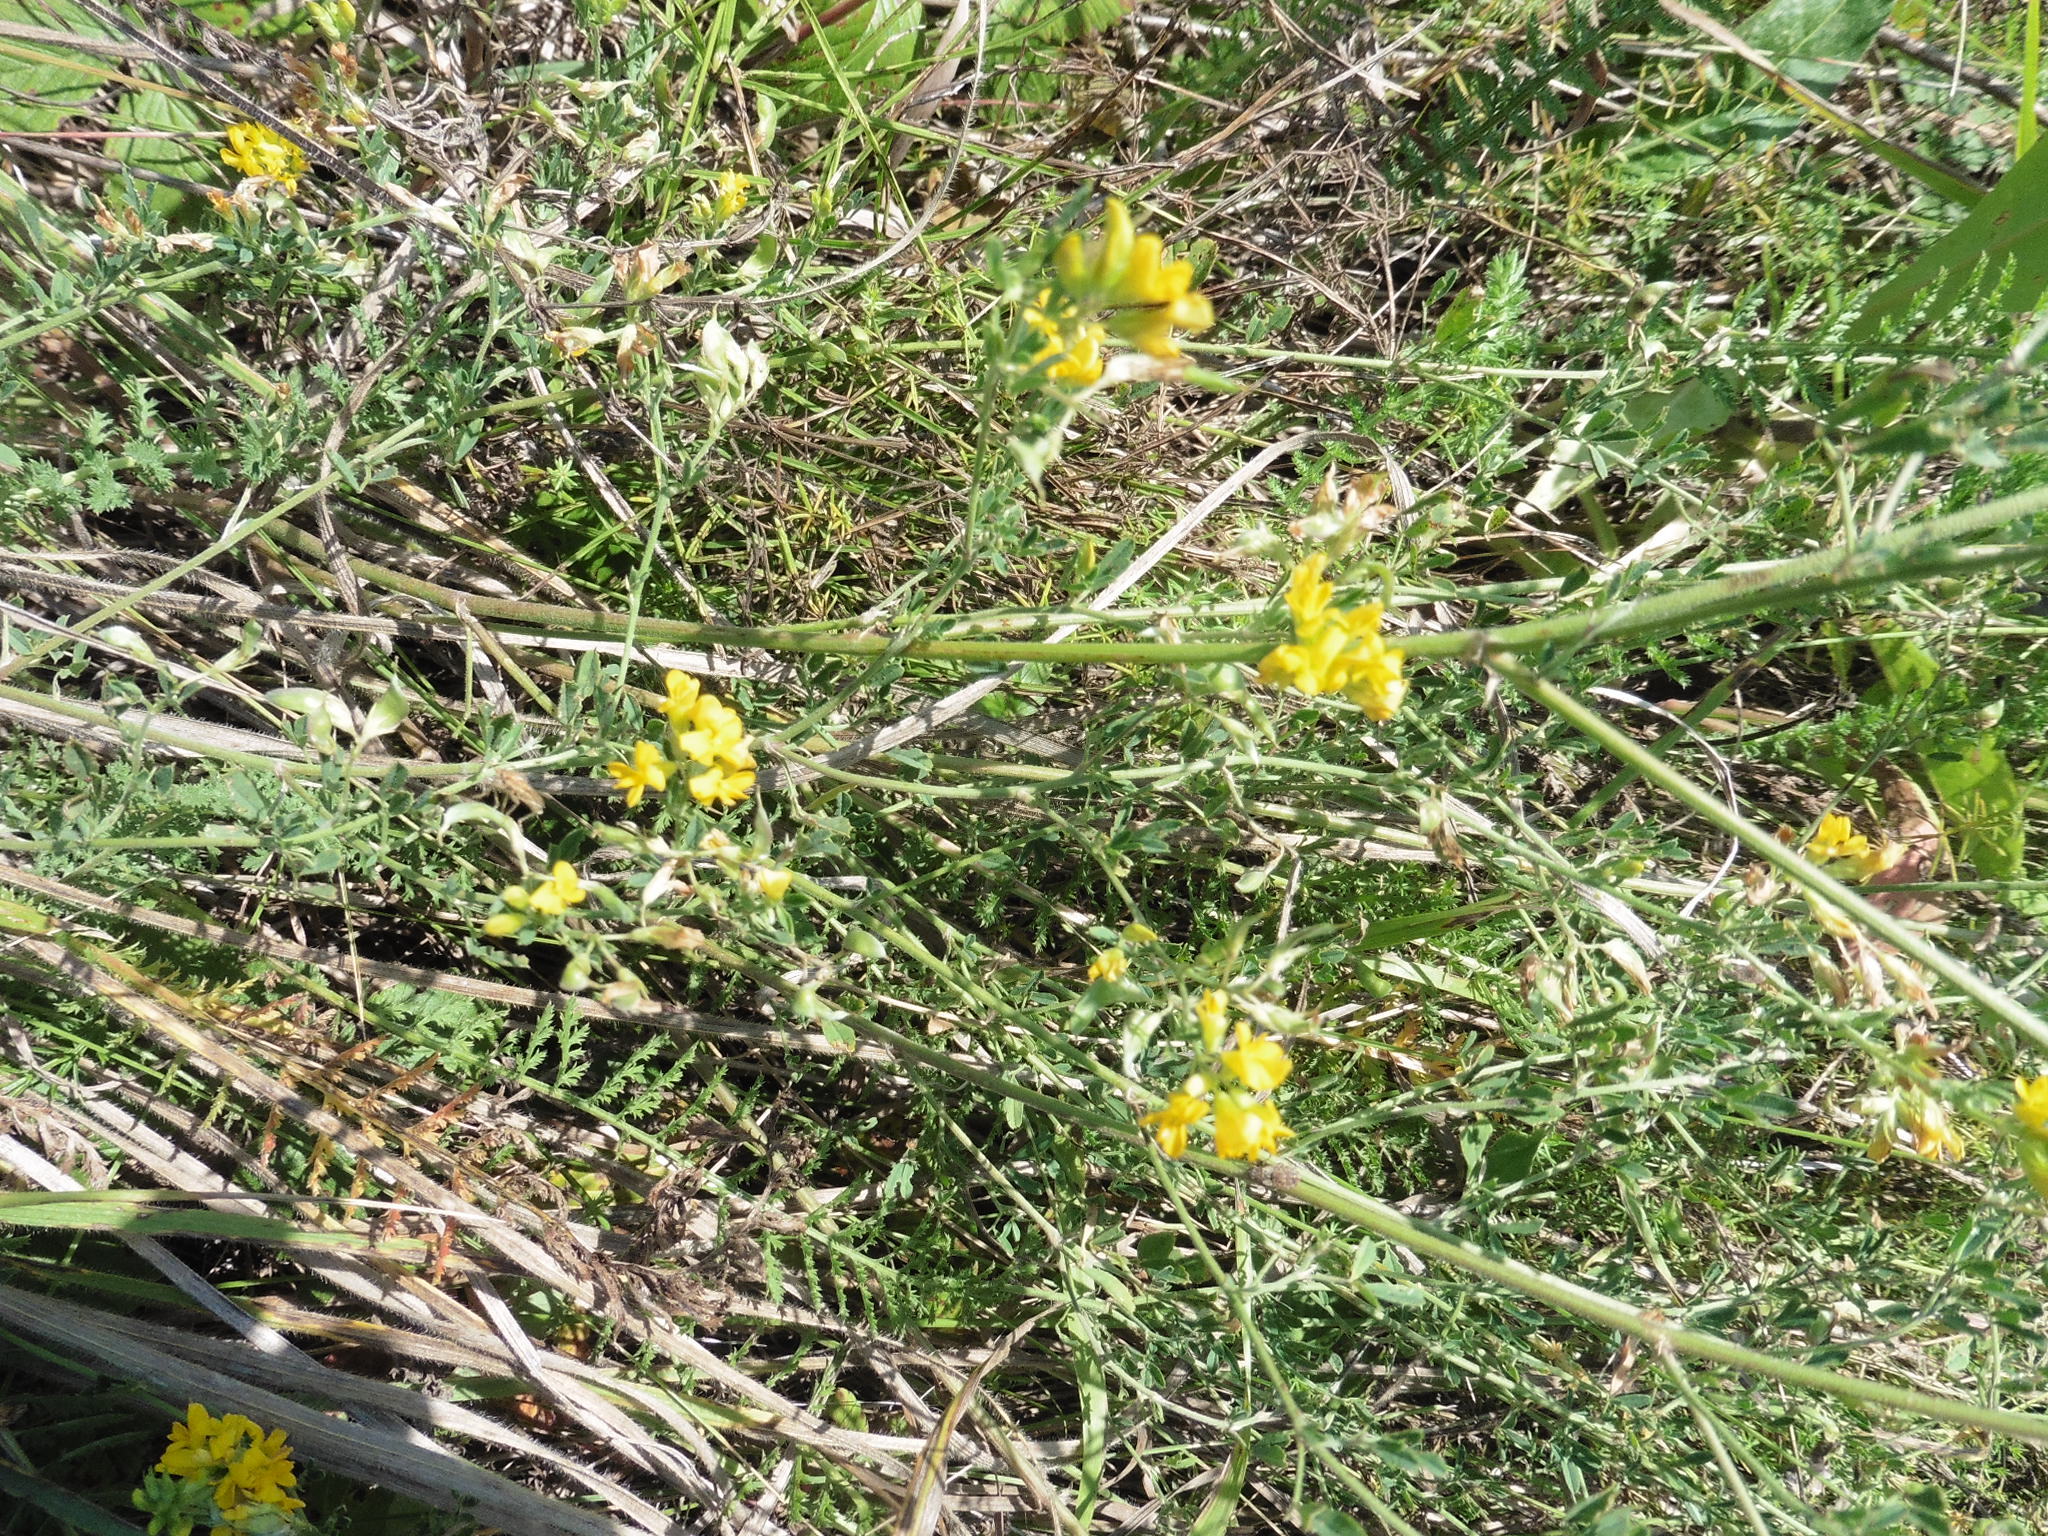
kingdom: Plantae
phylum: Tracheophyta
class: Magnoliopsida
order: Fabales
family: Fabaceae
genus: Medicago
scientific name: Medicago falcata
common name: Sickle medick
